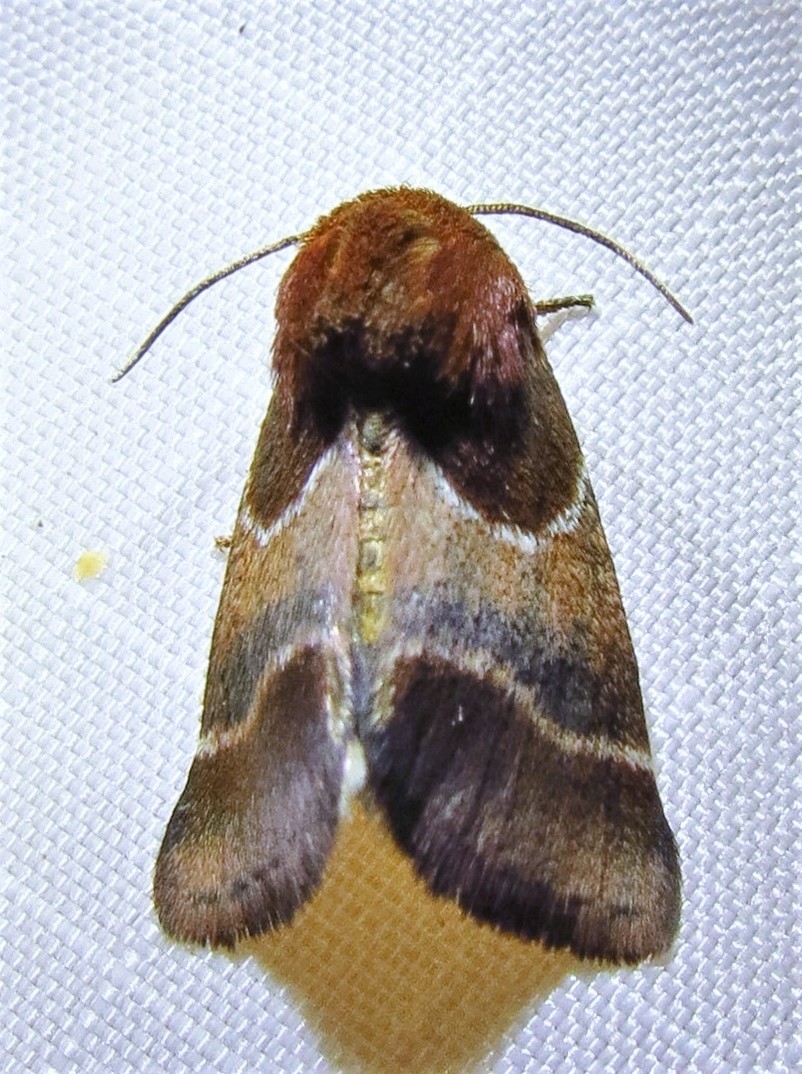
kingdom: Animalia
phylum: Arthropoda
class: Insecta
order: Lepidoptera
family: Noctuidae
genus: Schinia
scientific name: Schinia arcigera
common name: Arcigera flower moth
